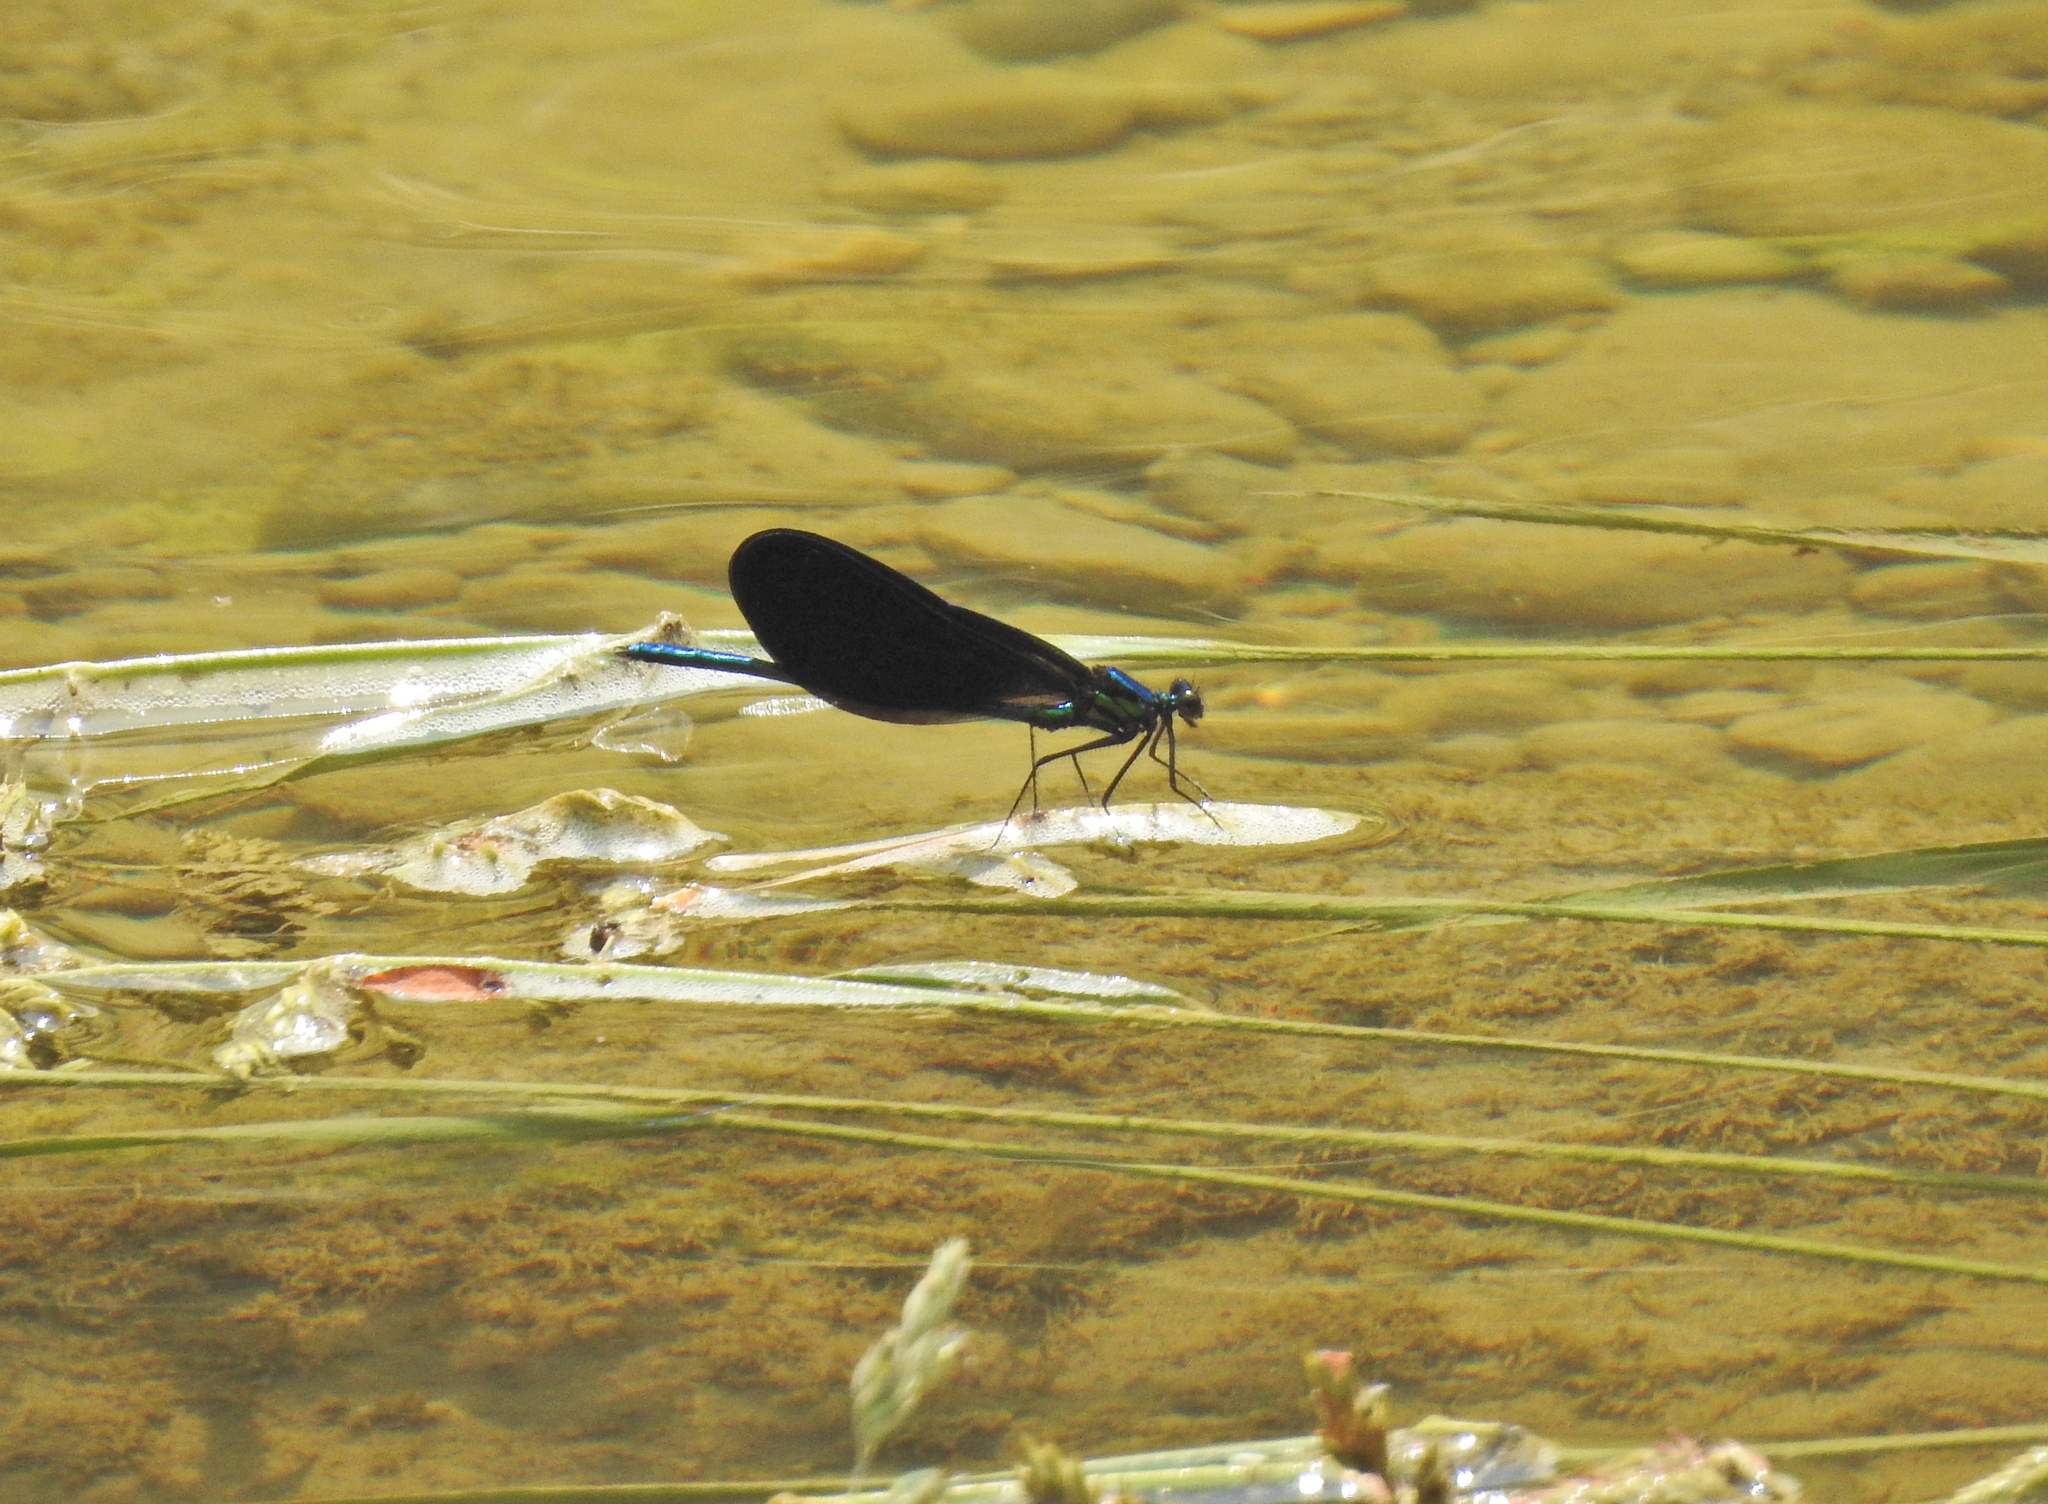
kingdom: Animalia
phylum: Arthropoda
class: Insecta
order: Odonata
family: Calopterygidae
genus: Calopteryx
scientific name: Calopteryx maculata
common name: Ebony jewelwing
